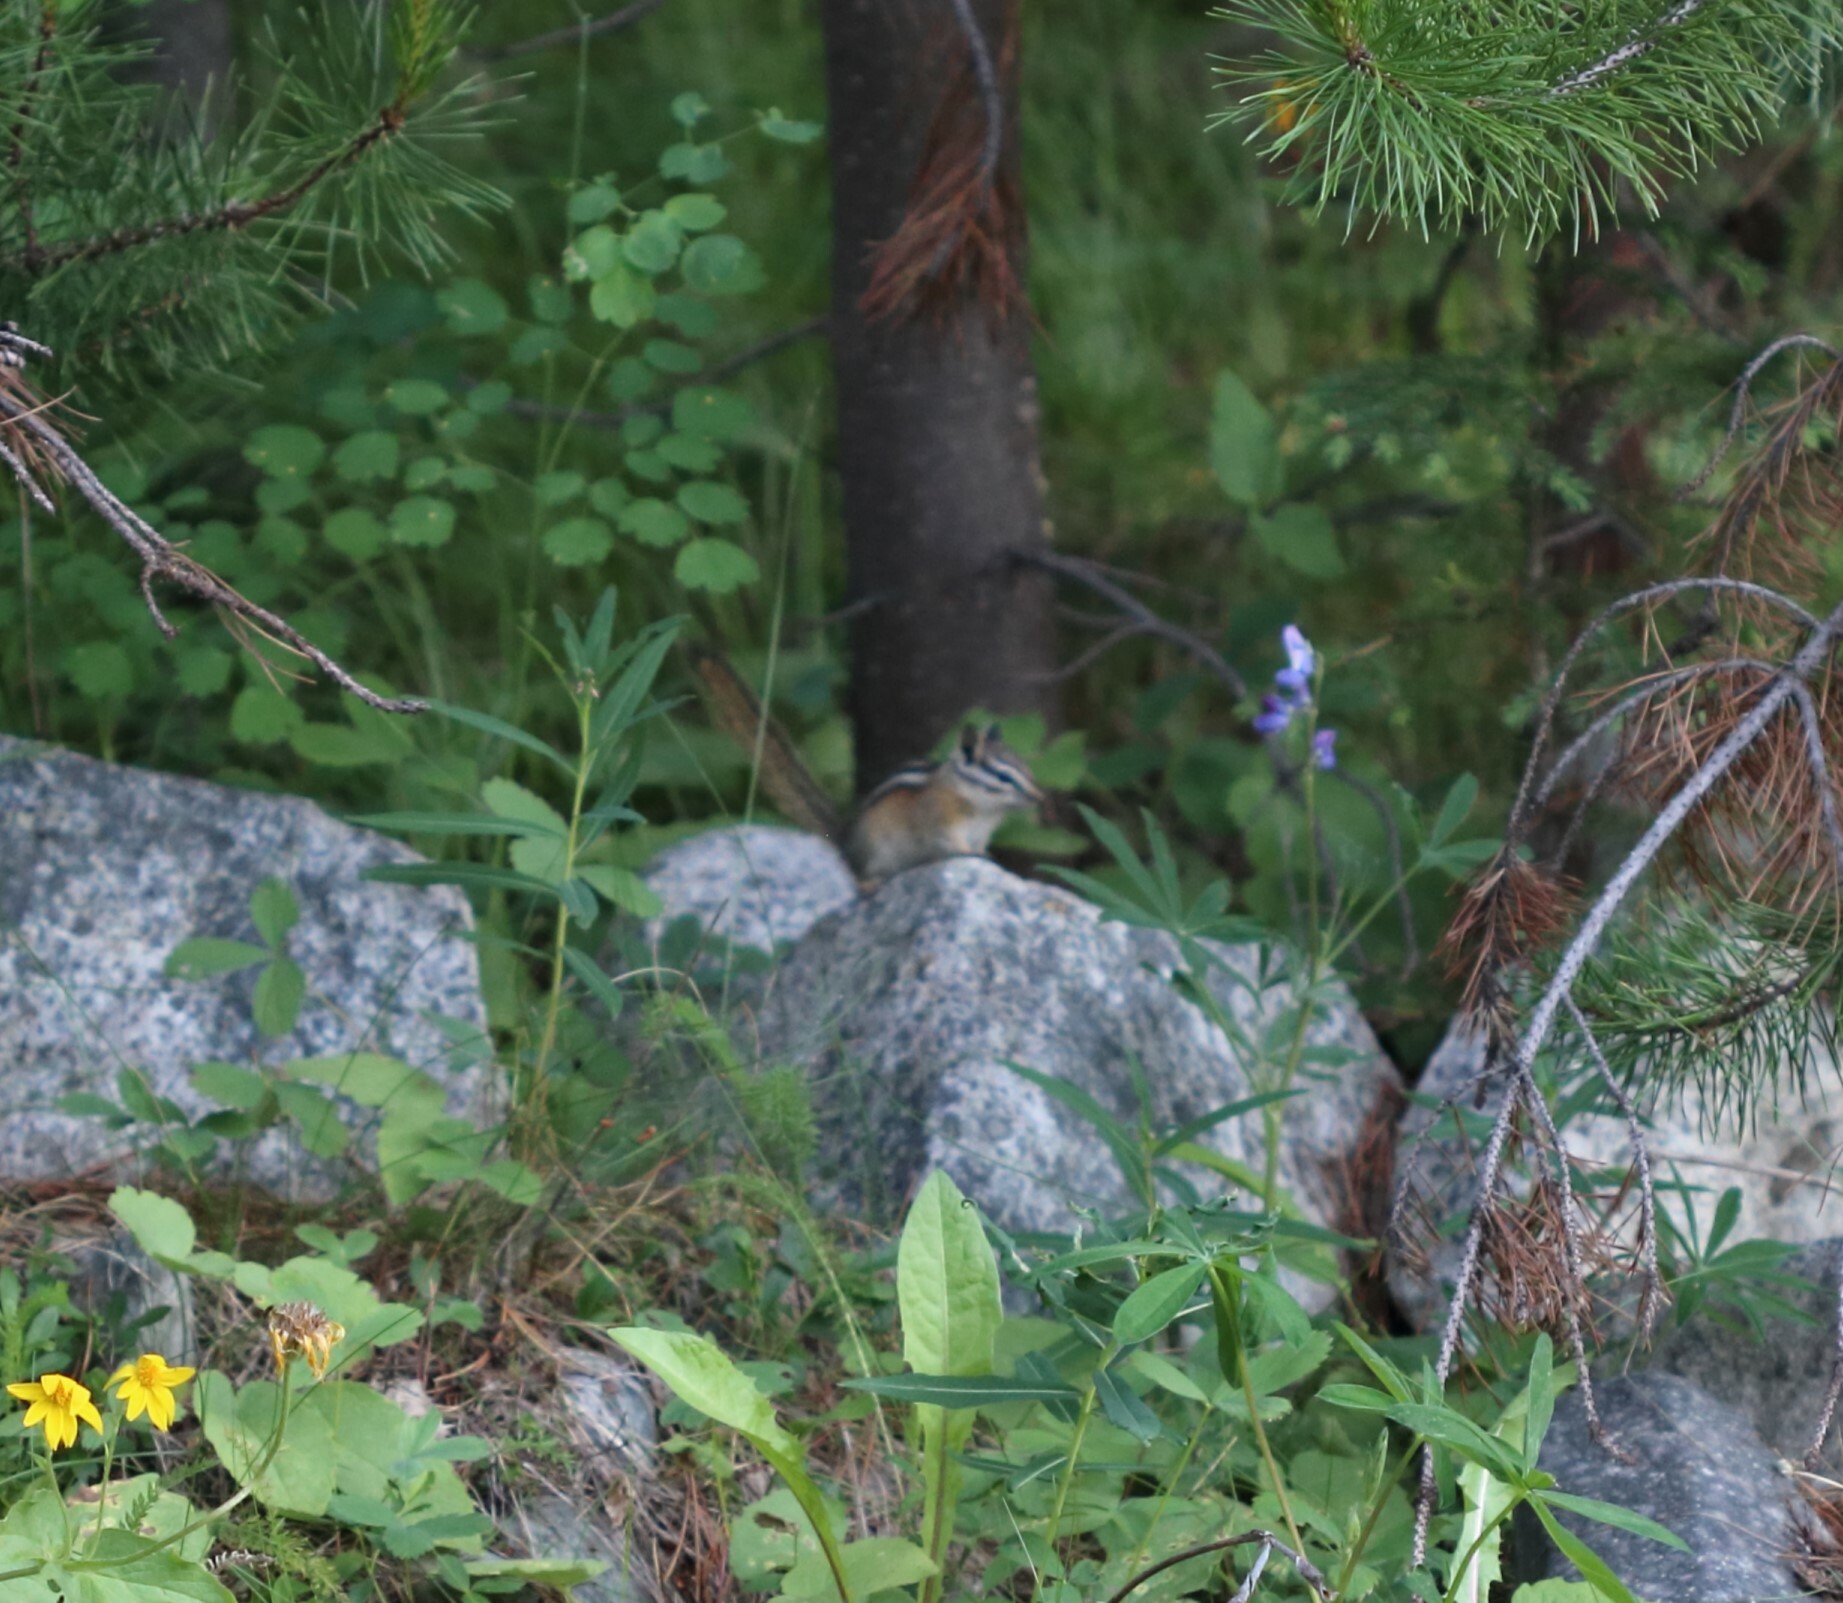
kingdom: Animalia
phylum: Chordata
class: Mammalia
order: Rodentia
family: Sciuridae
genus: Tamias
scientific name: Tamias amoenus
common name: Yellow-pine chipmunk
